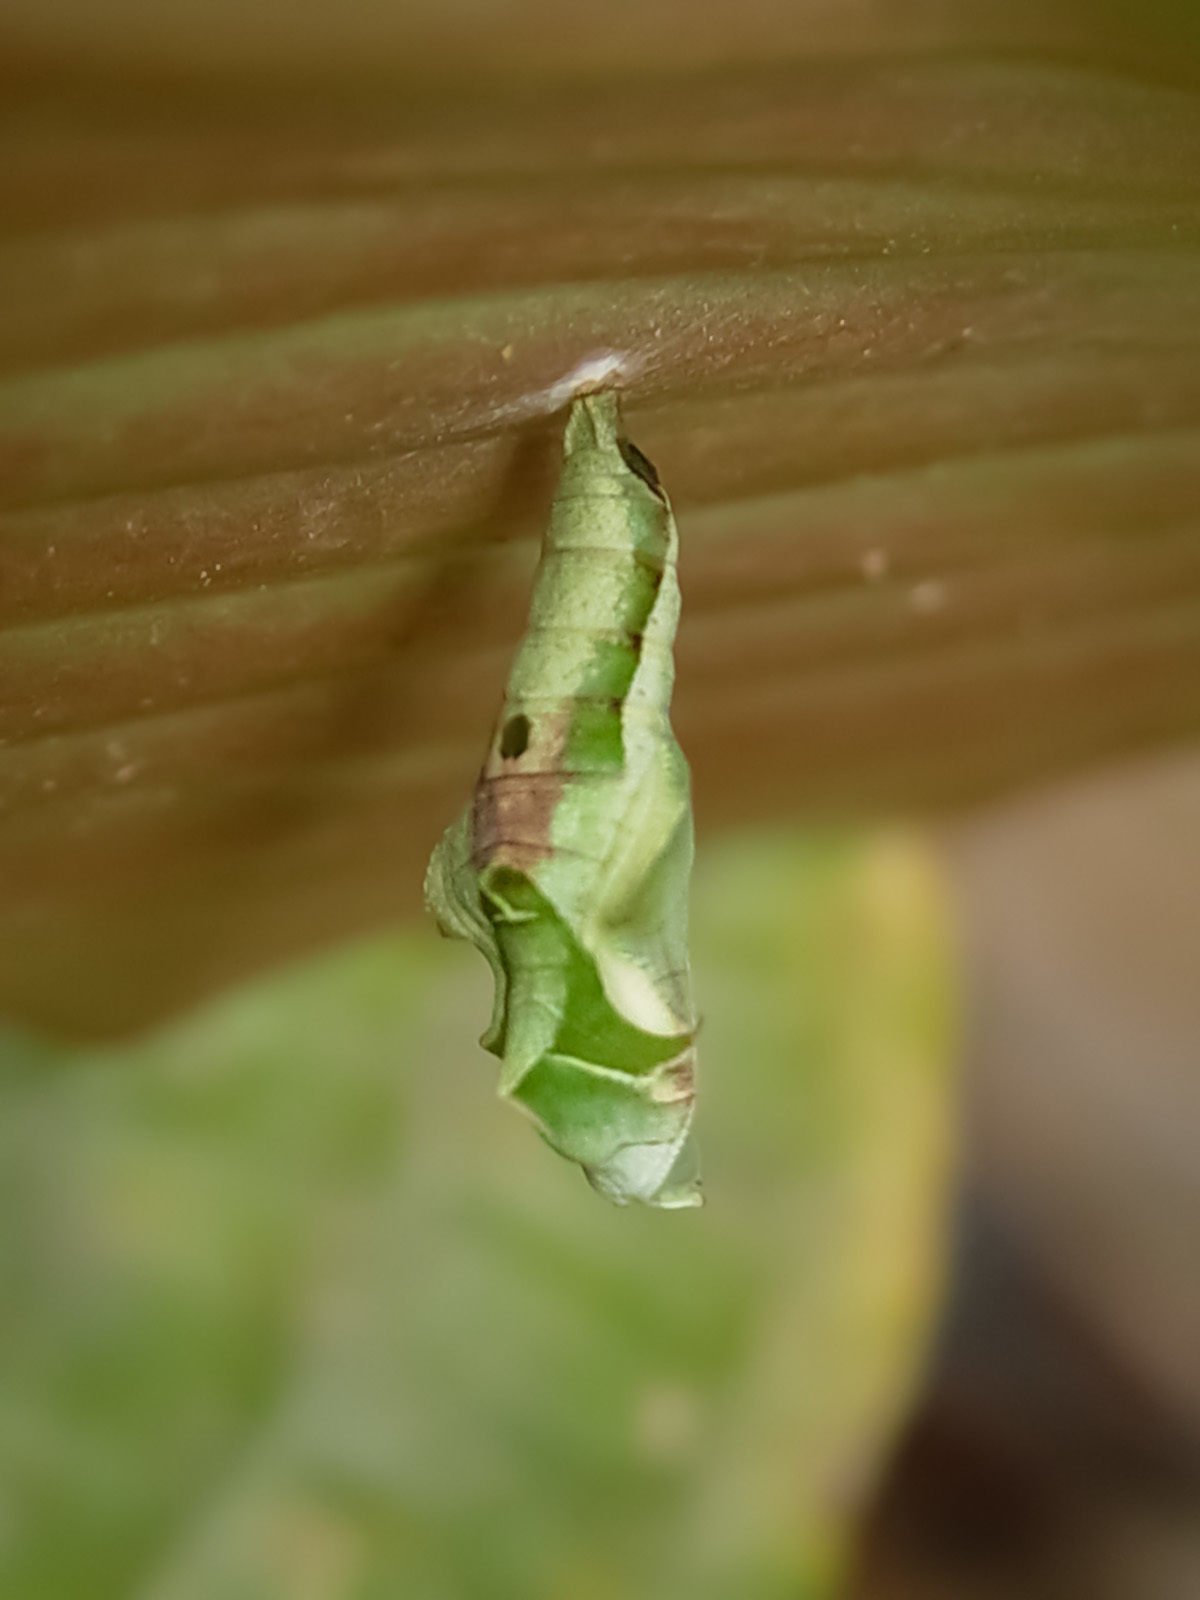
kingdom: Animalia
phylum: Arthropoda
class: Insecta
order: Lepidoptera
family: Nymphalidae
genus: Ariadne
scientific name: Ariadne ariadne
